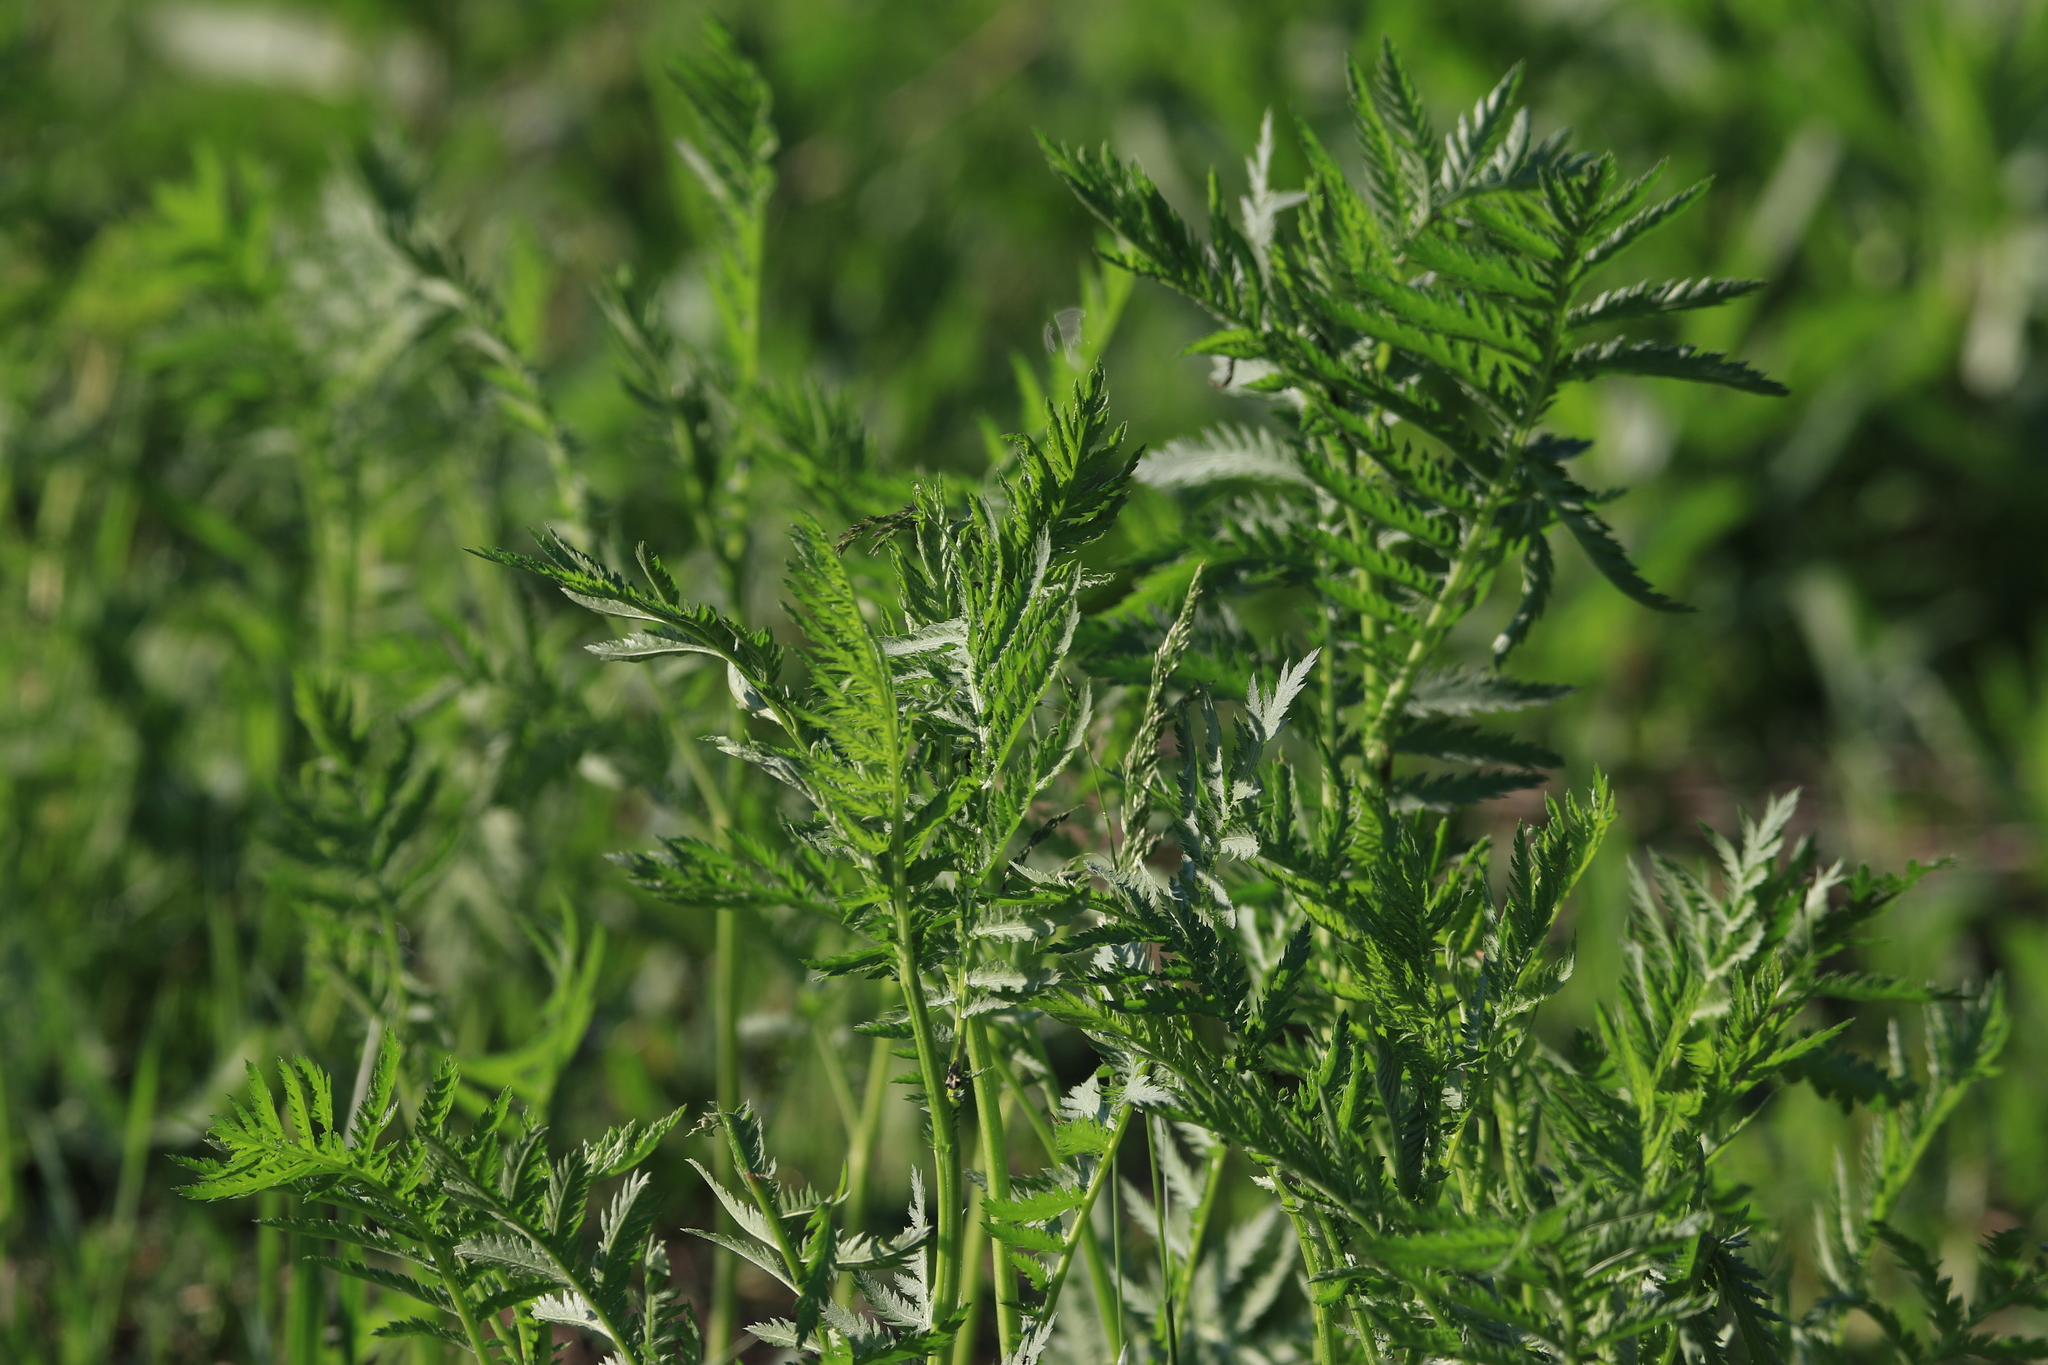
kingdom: Plantae
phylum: Tracheophyta
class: Magnoliopsida
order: Asterales
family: Asteraceae
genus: Tanacetum
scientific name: Tanacetum vulgare
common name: Common tansy
